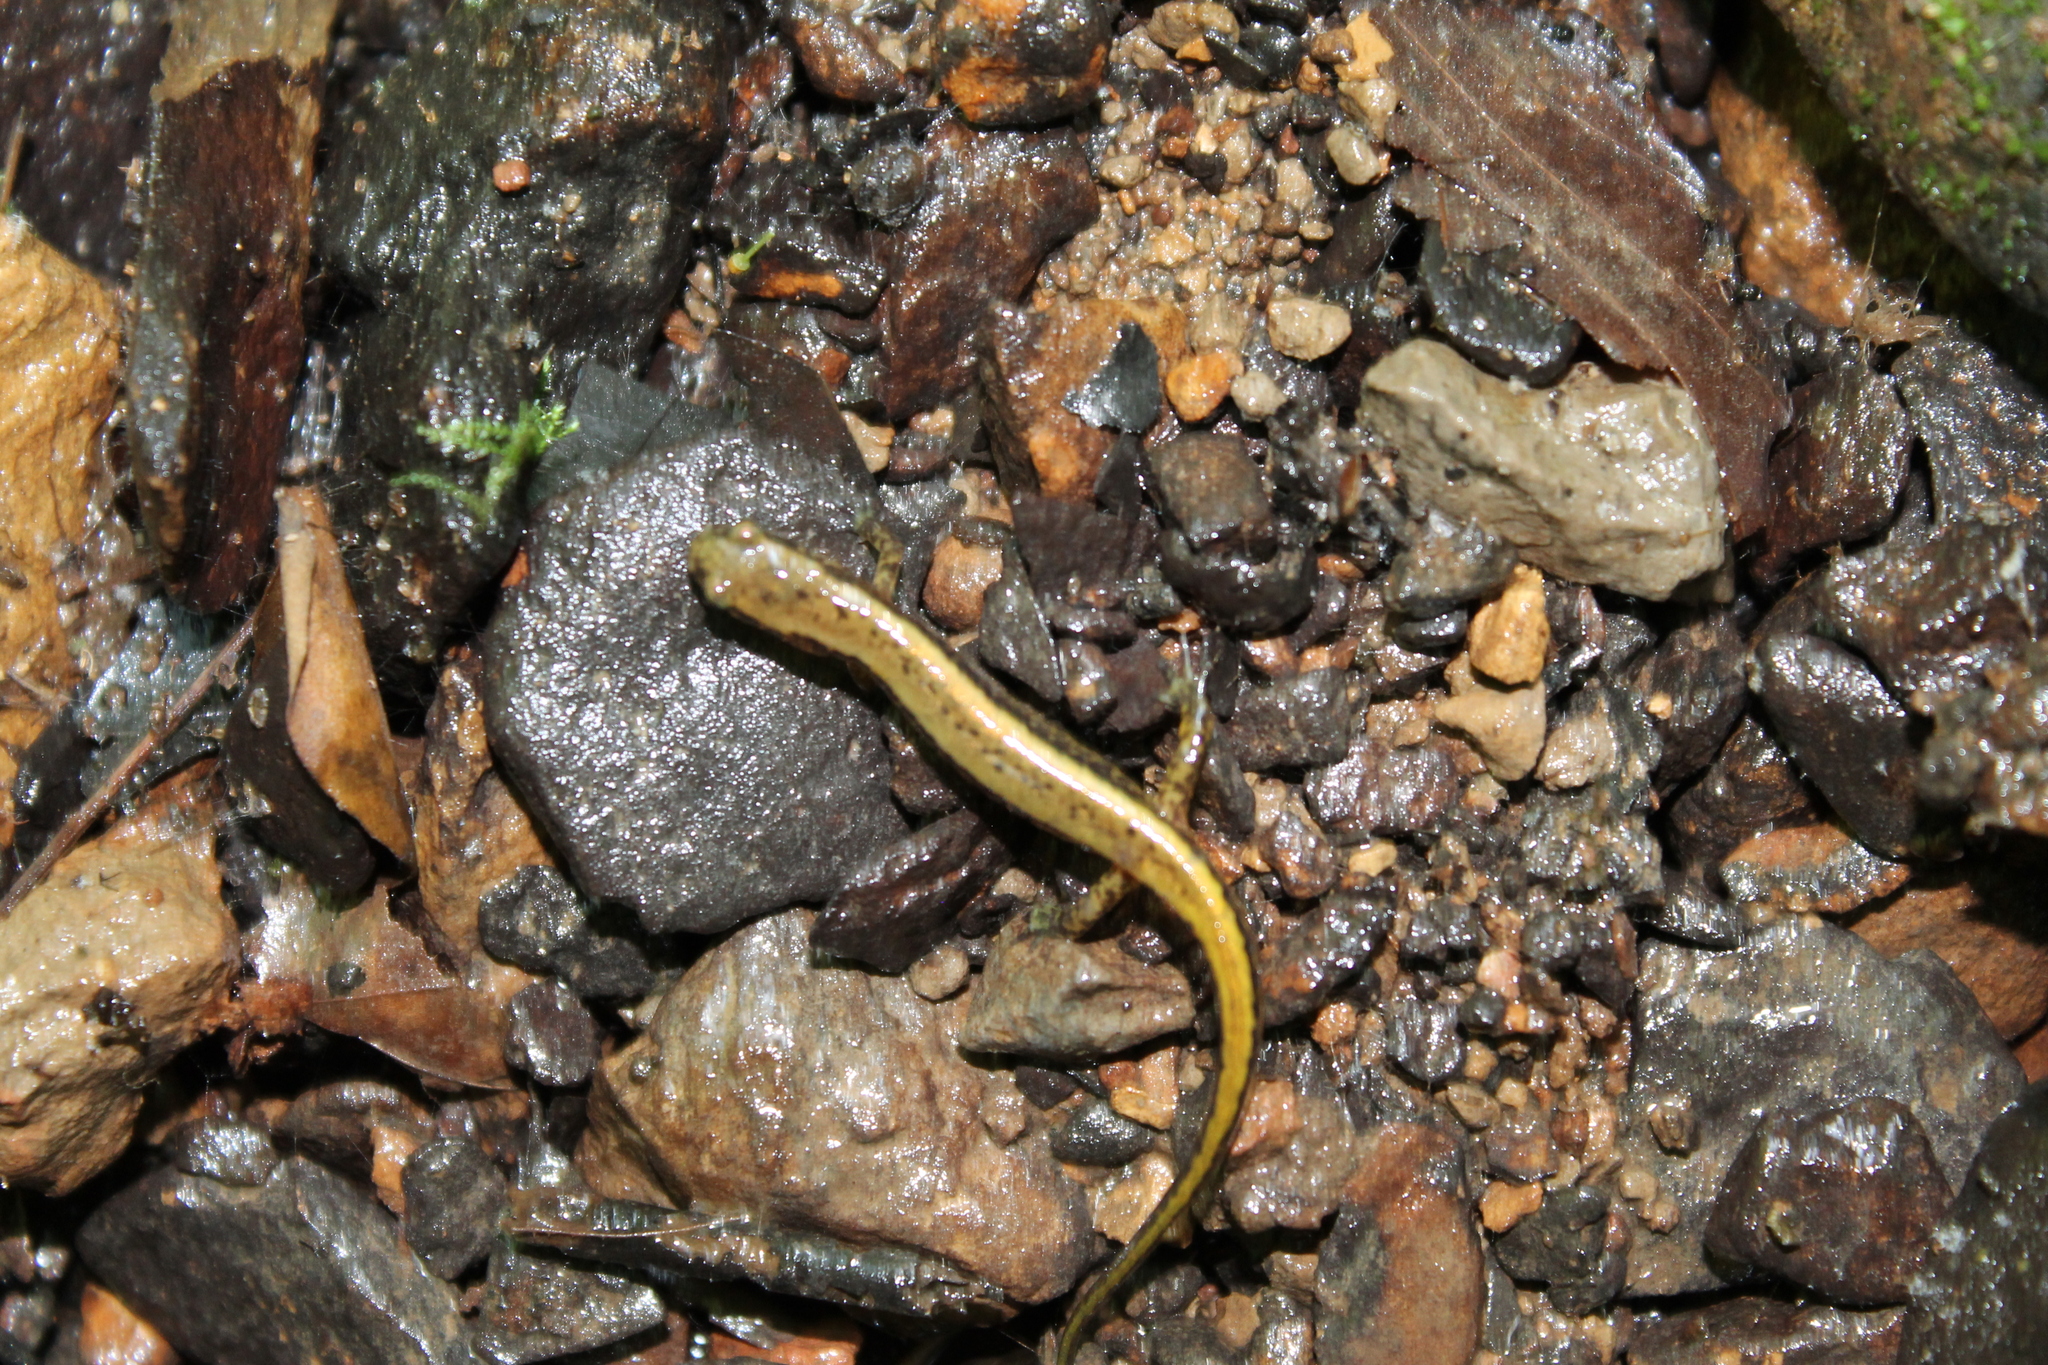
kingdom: Animalia
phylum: Chordata
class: Amphibia
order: Caudata
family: Plethodontidae
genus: Eurycea
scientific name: Eurycea cirrigera
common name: Southern two-lined salamander
